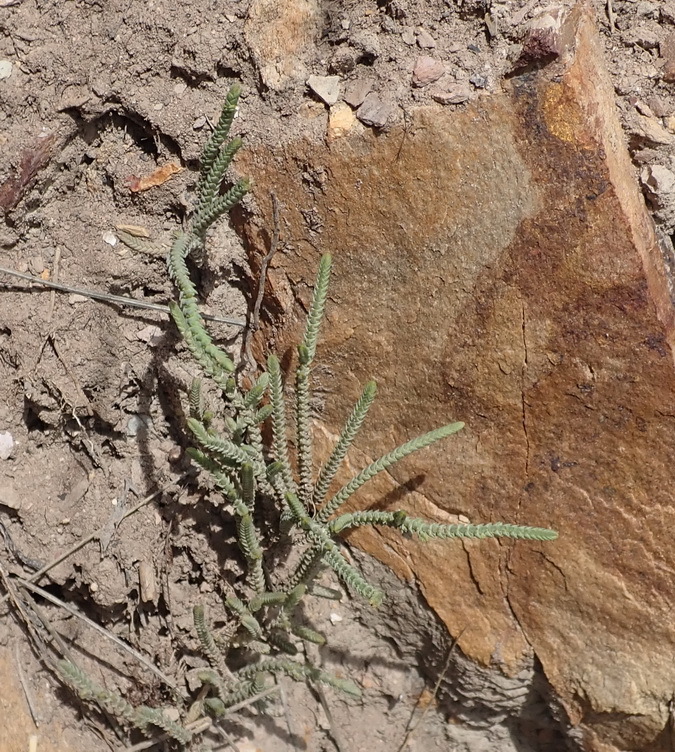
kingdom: Plantae
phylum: Tracheophyta
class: Magnoliopsida
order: Saxifragales
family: Crassulaceae
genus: Crassula
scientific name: Crassula muscosa
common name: Toy-cypress
